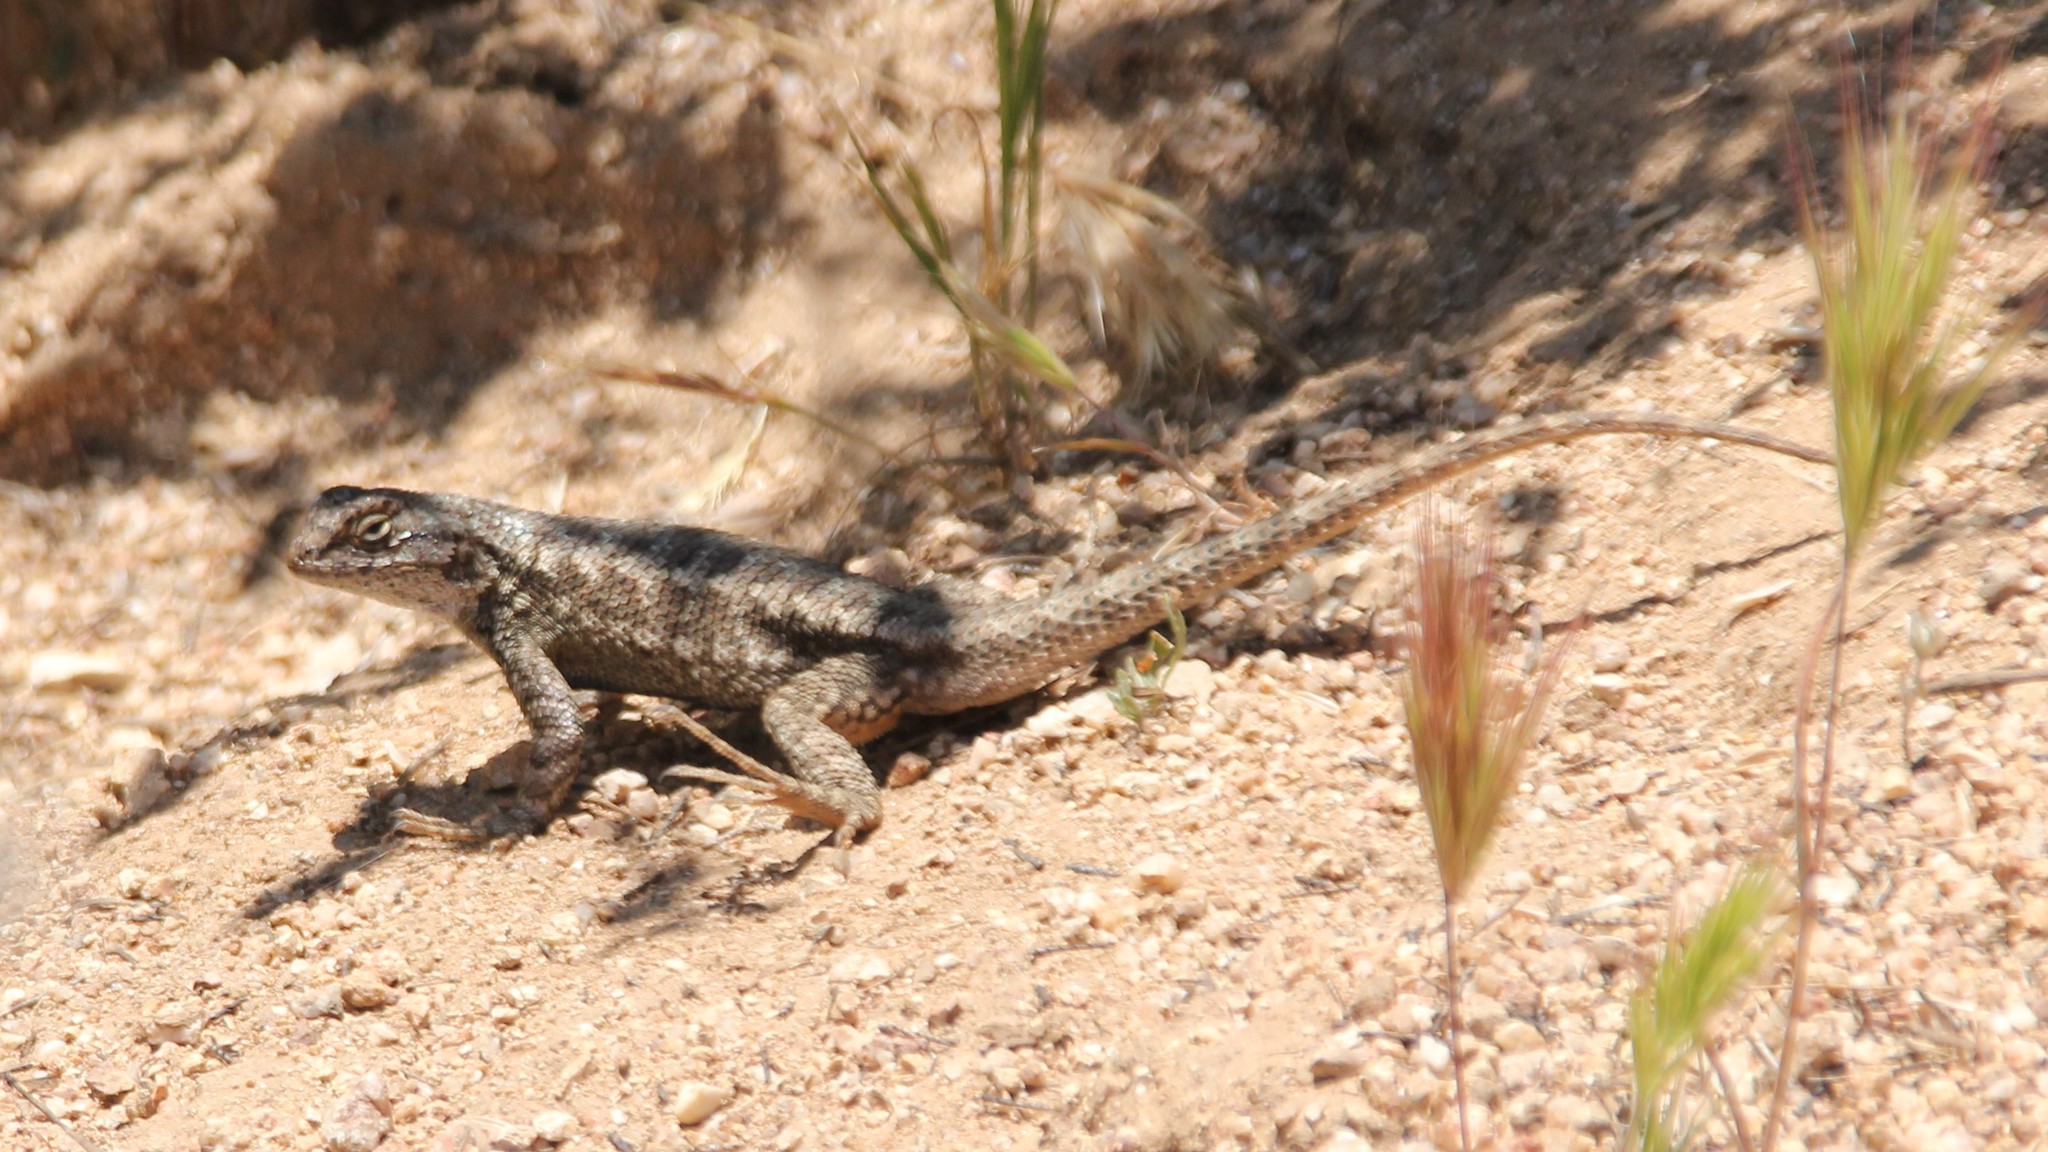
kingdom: Animalia
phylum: Chordata
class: Squamata
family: Phrynosomatidae
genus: Sceloporus
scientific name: Sceloporus occidentalis
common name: Western fence lizard
